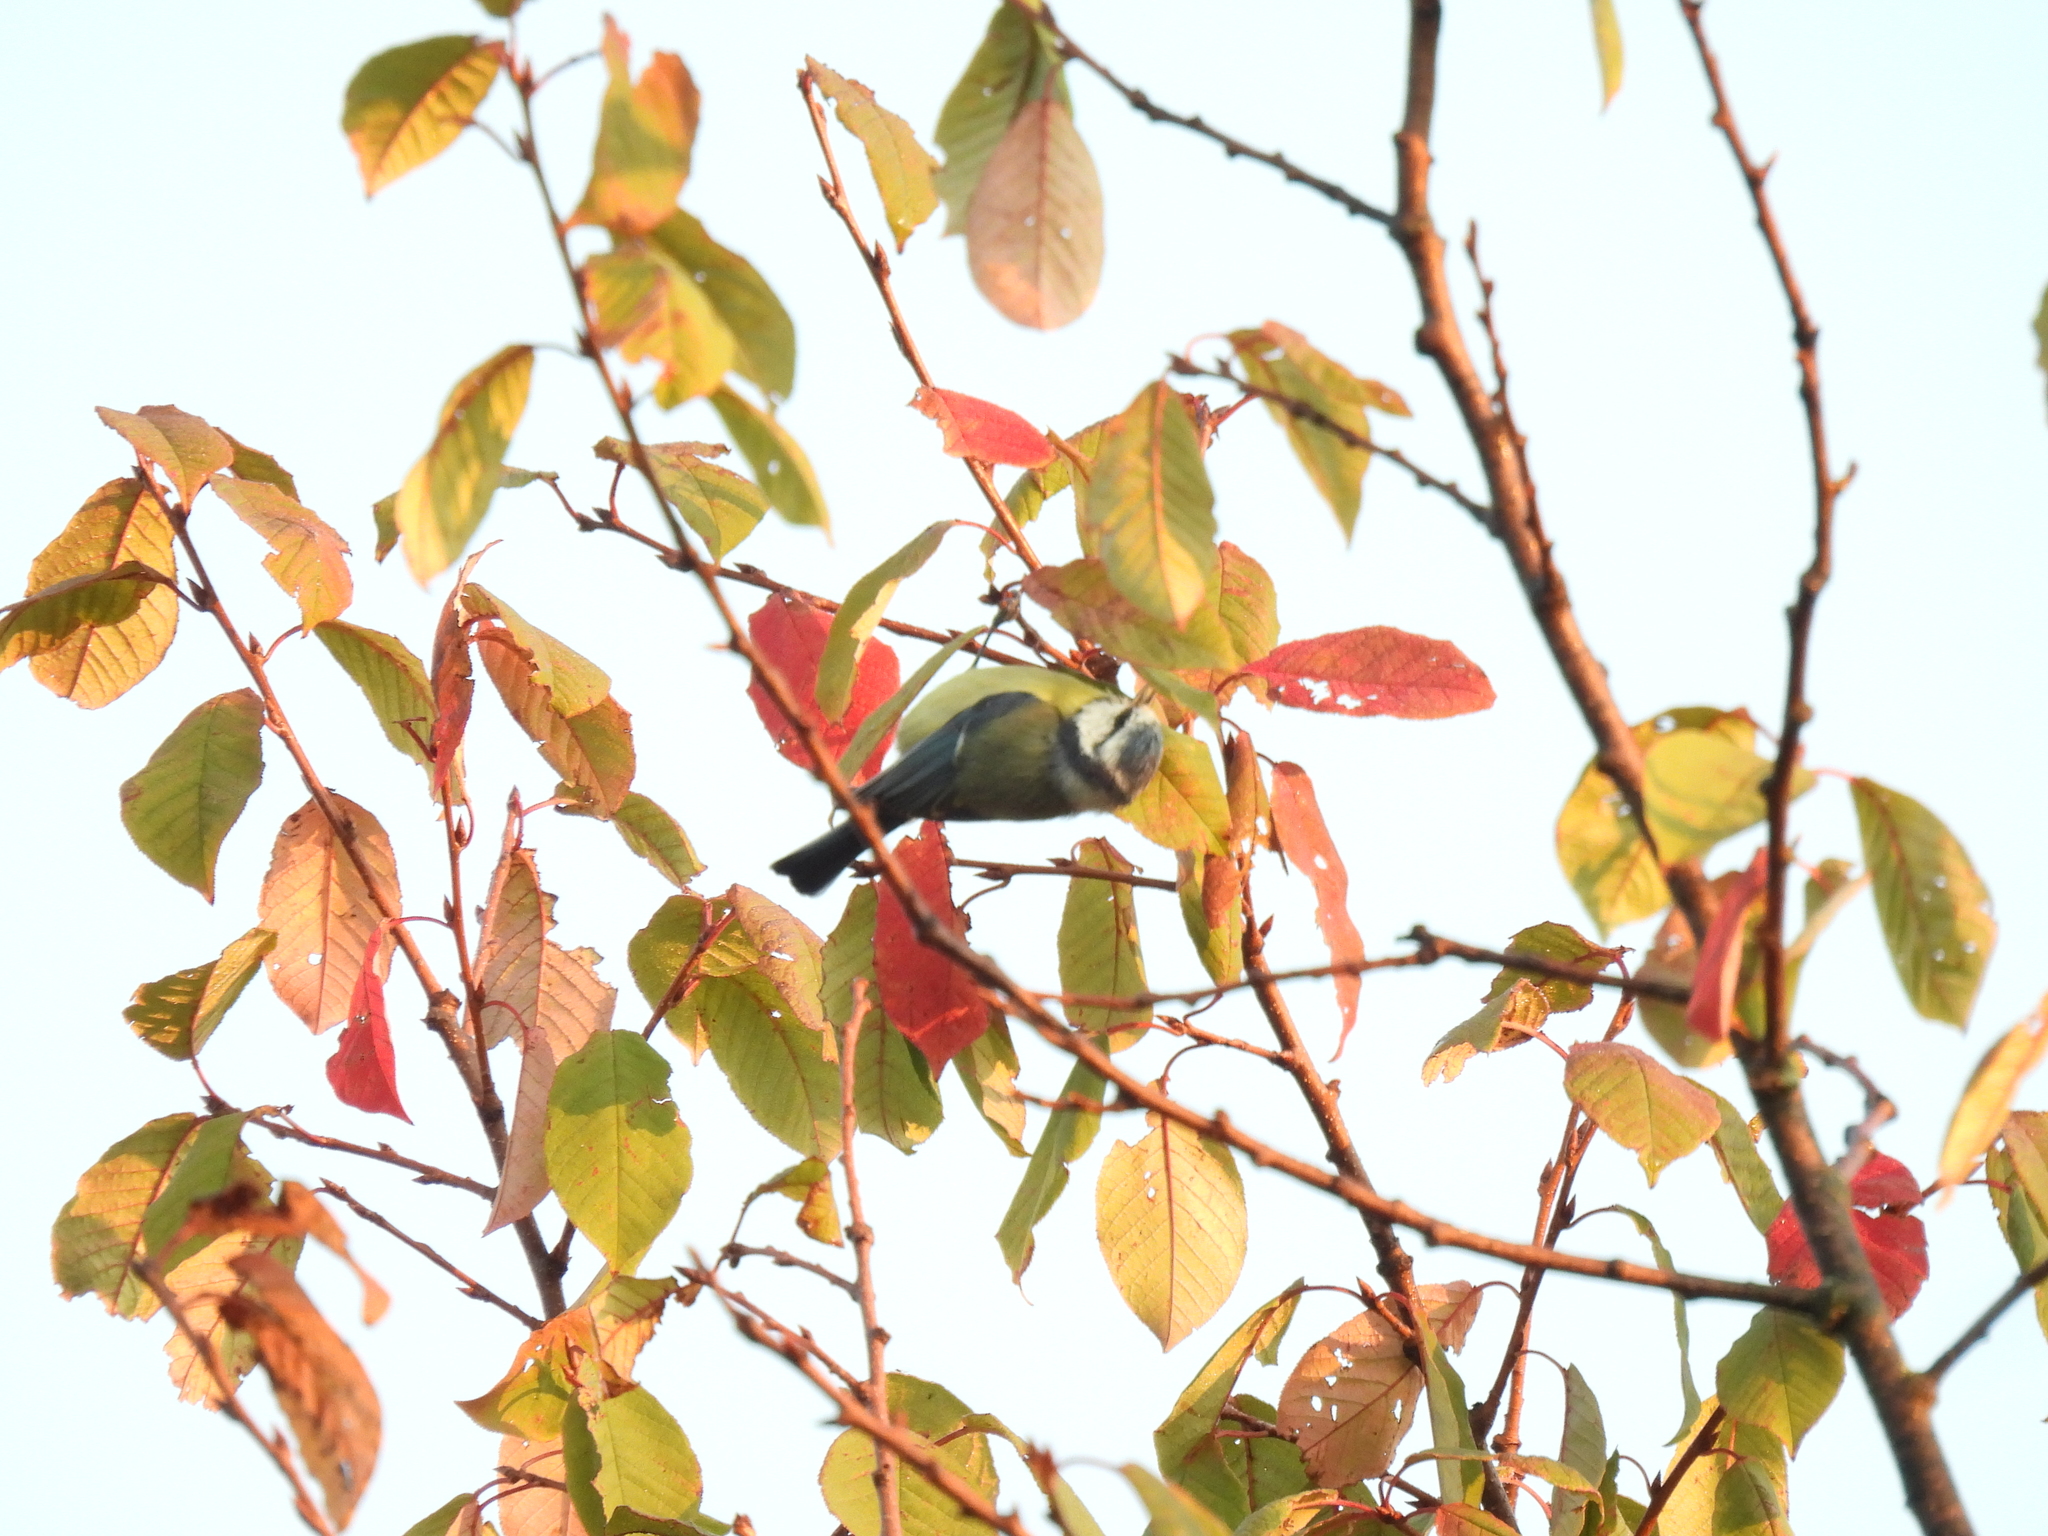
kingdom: Animalia
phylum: Chordata
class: Aves
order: Passeriformes
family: Paridae
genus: Cyanistes
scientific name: Cyanistes caeruleus
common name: Eurasian blue tit
